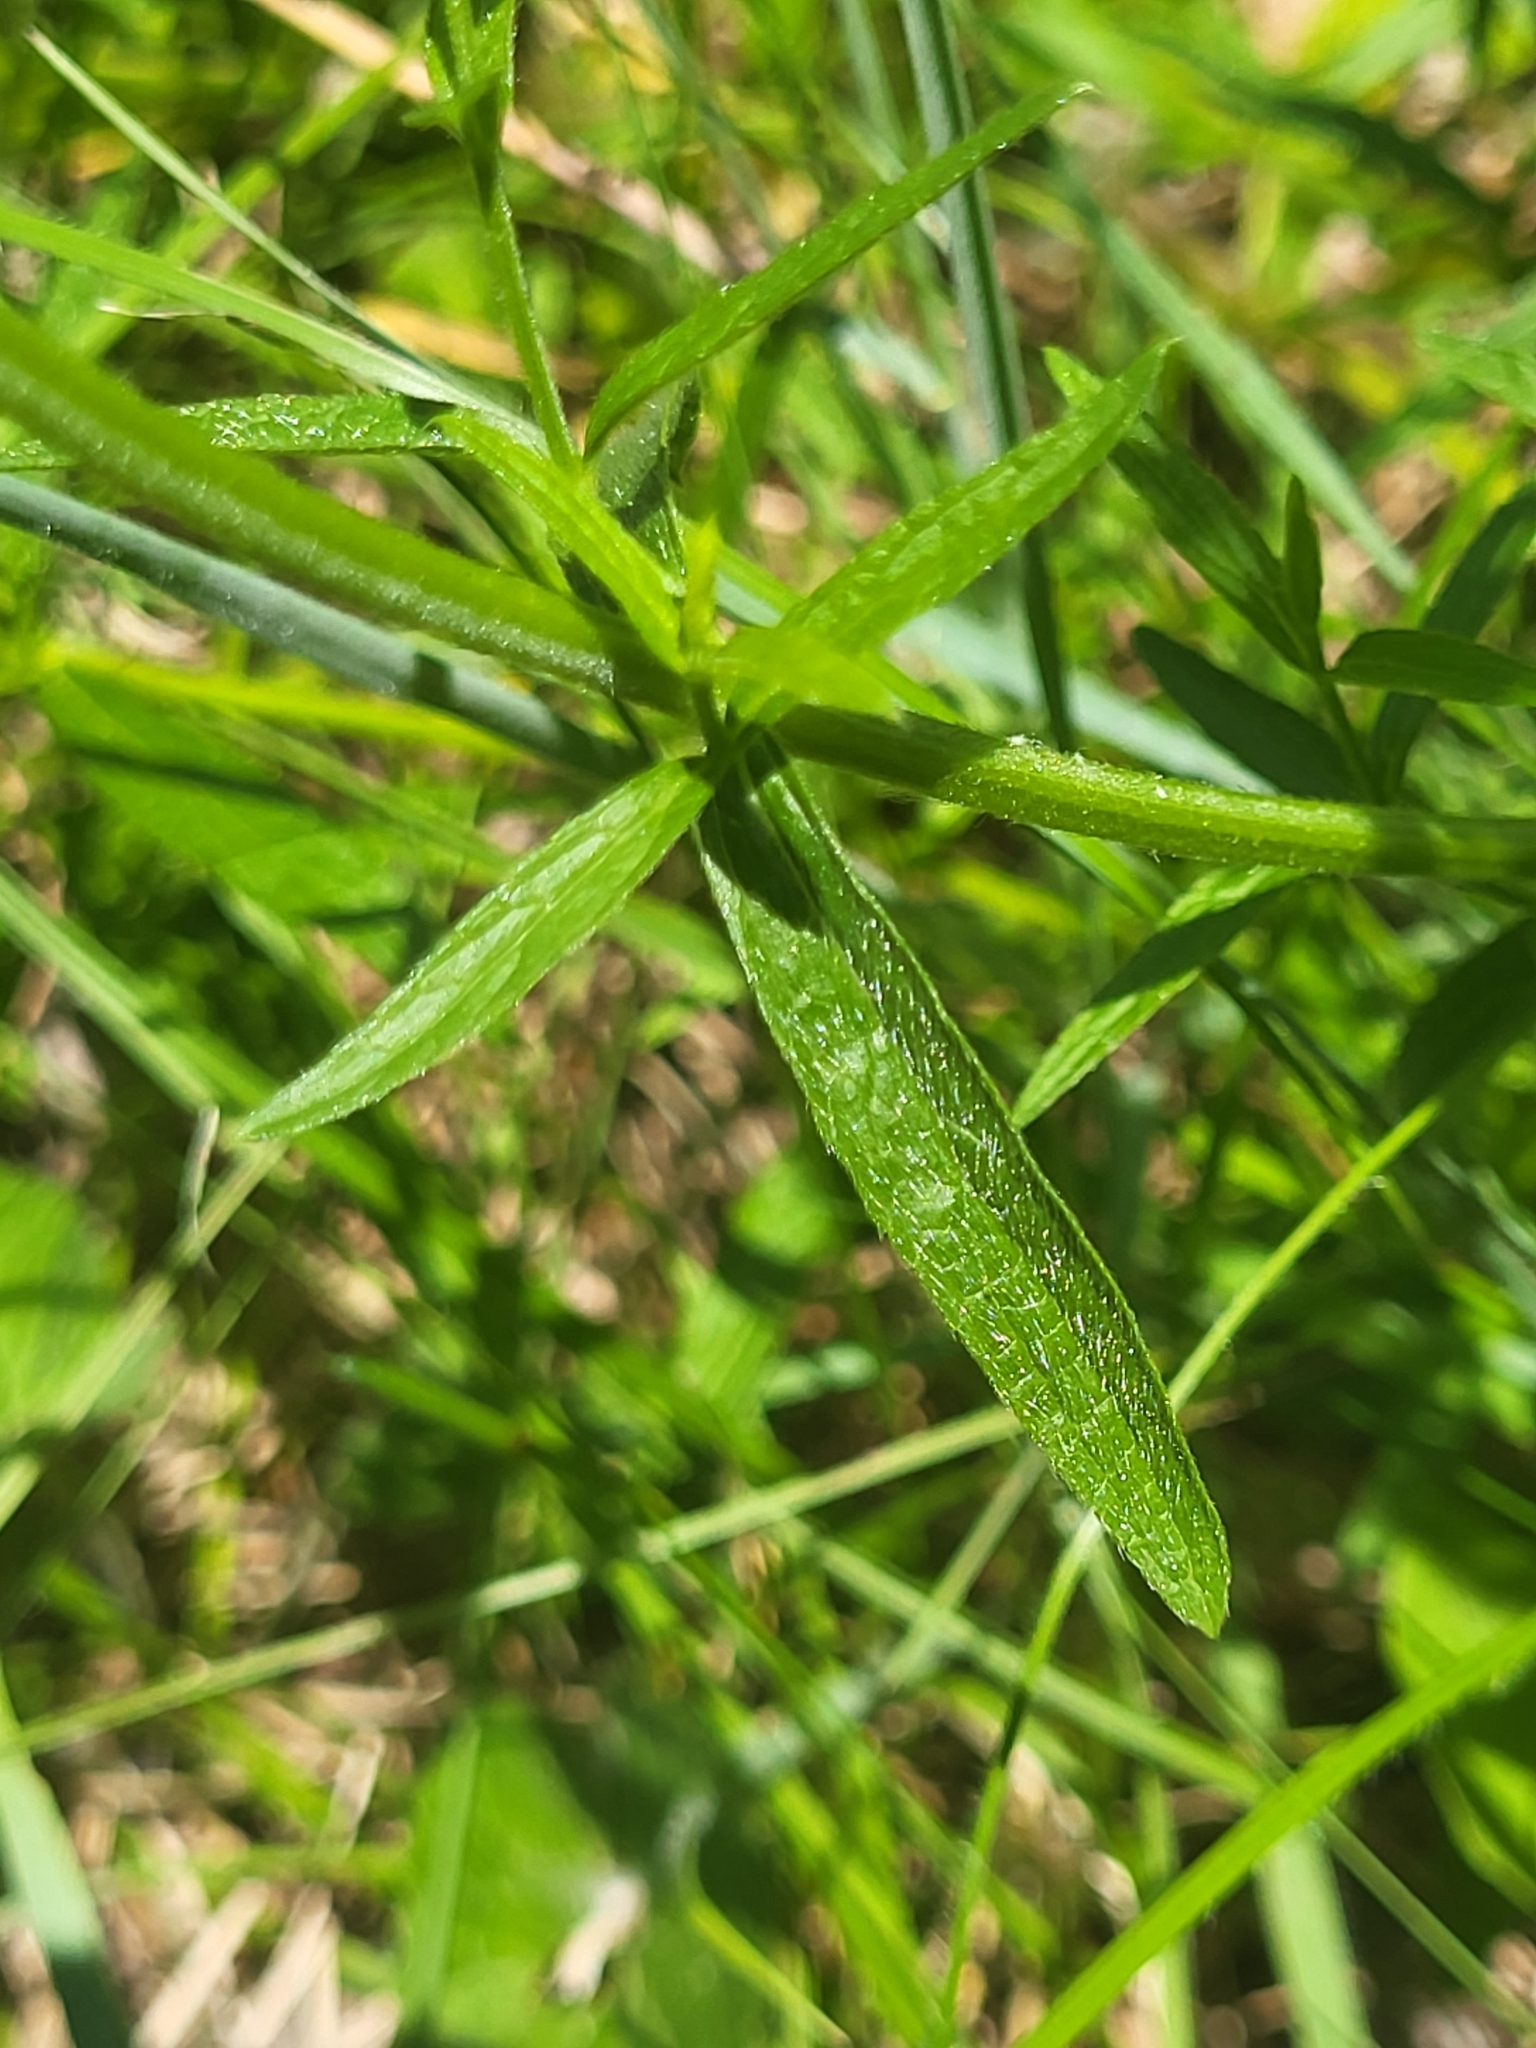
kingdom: Plantae
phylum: Tracheophyta
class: Magnoliopsida
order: Lamiales
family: Lamiaceae
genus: Stachys
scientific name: Stachys recta
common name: Perennial yellow-woundwort
